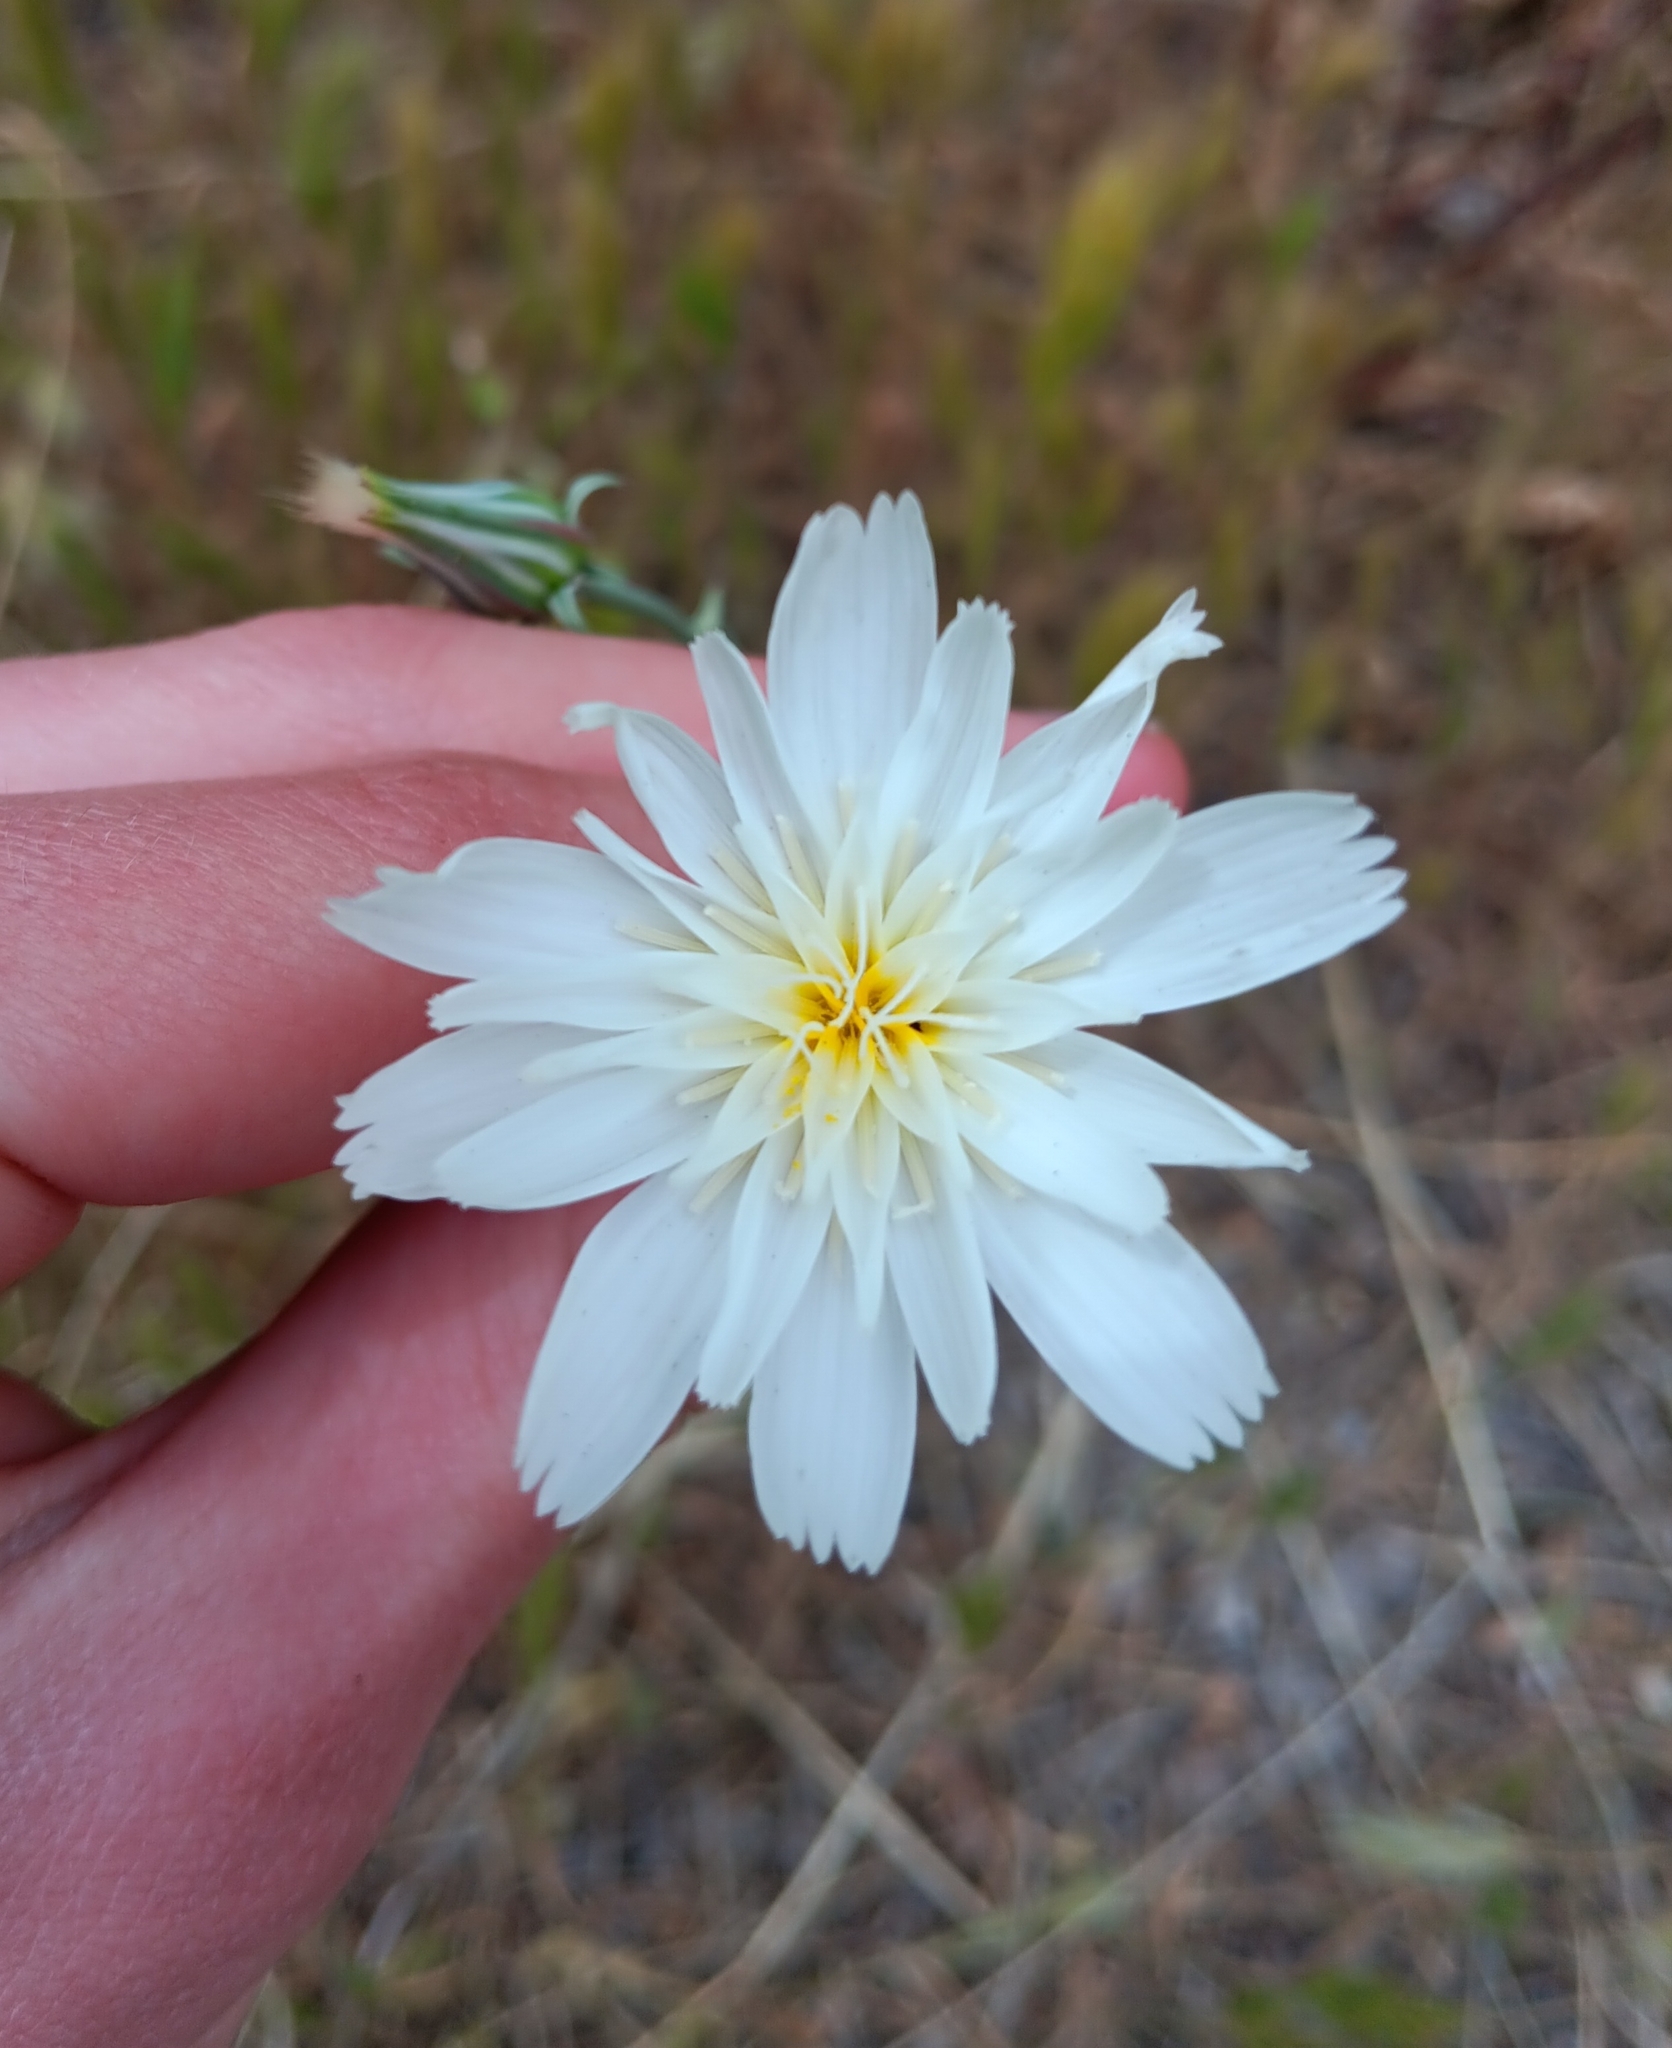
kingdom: Plantae
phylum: Tracheophyta
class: Magnoliopsida
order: Asterales
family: Asteraceae
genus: Rafinesquia
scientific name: Rafinesquia neomexicana
